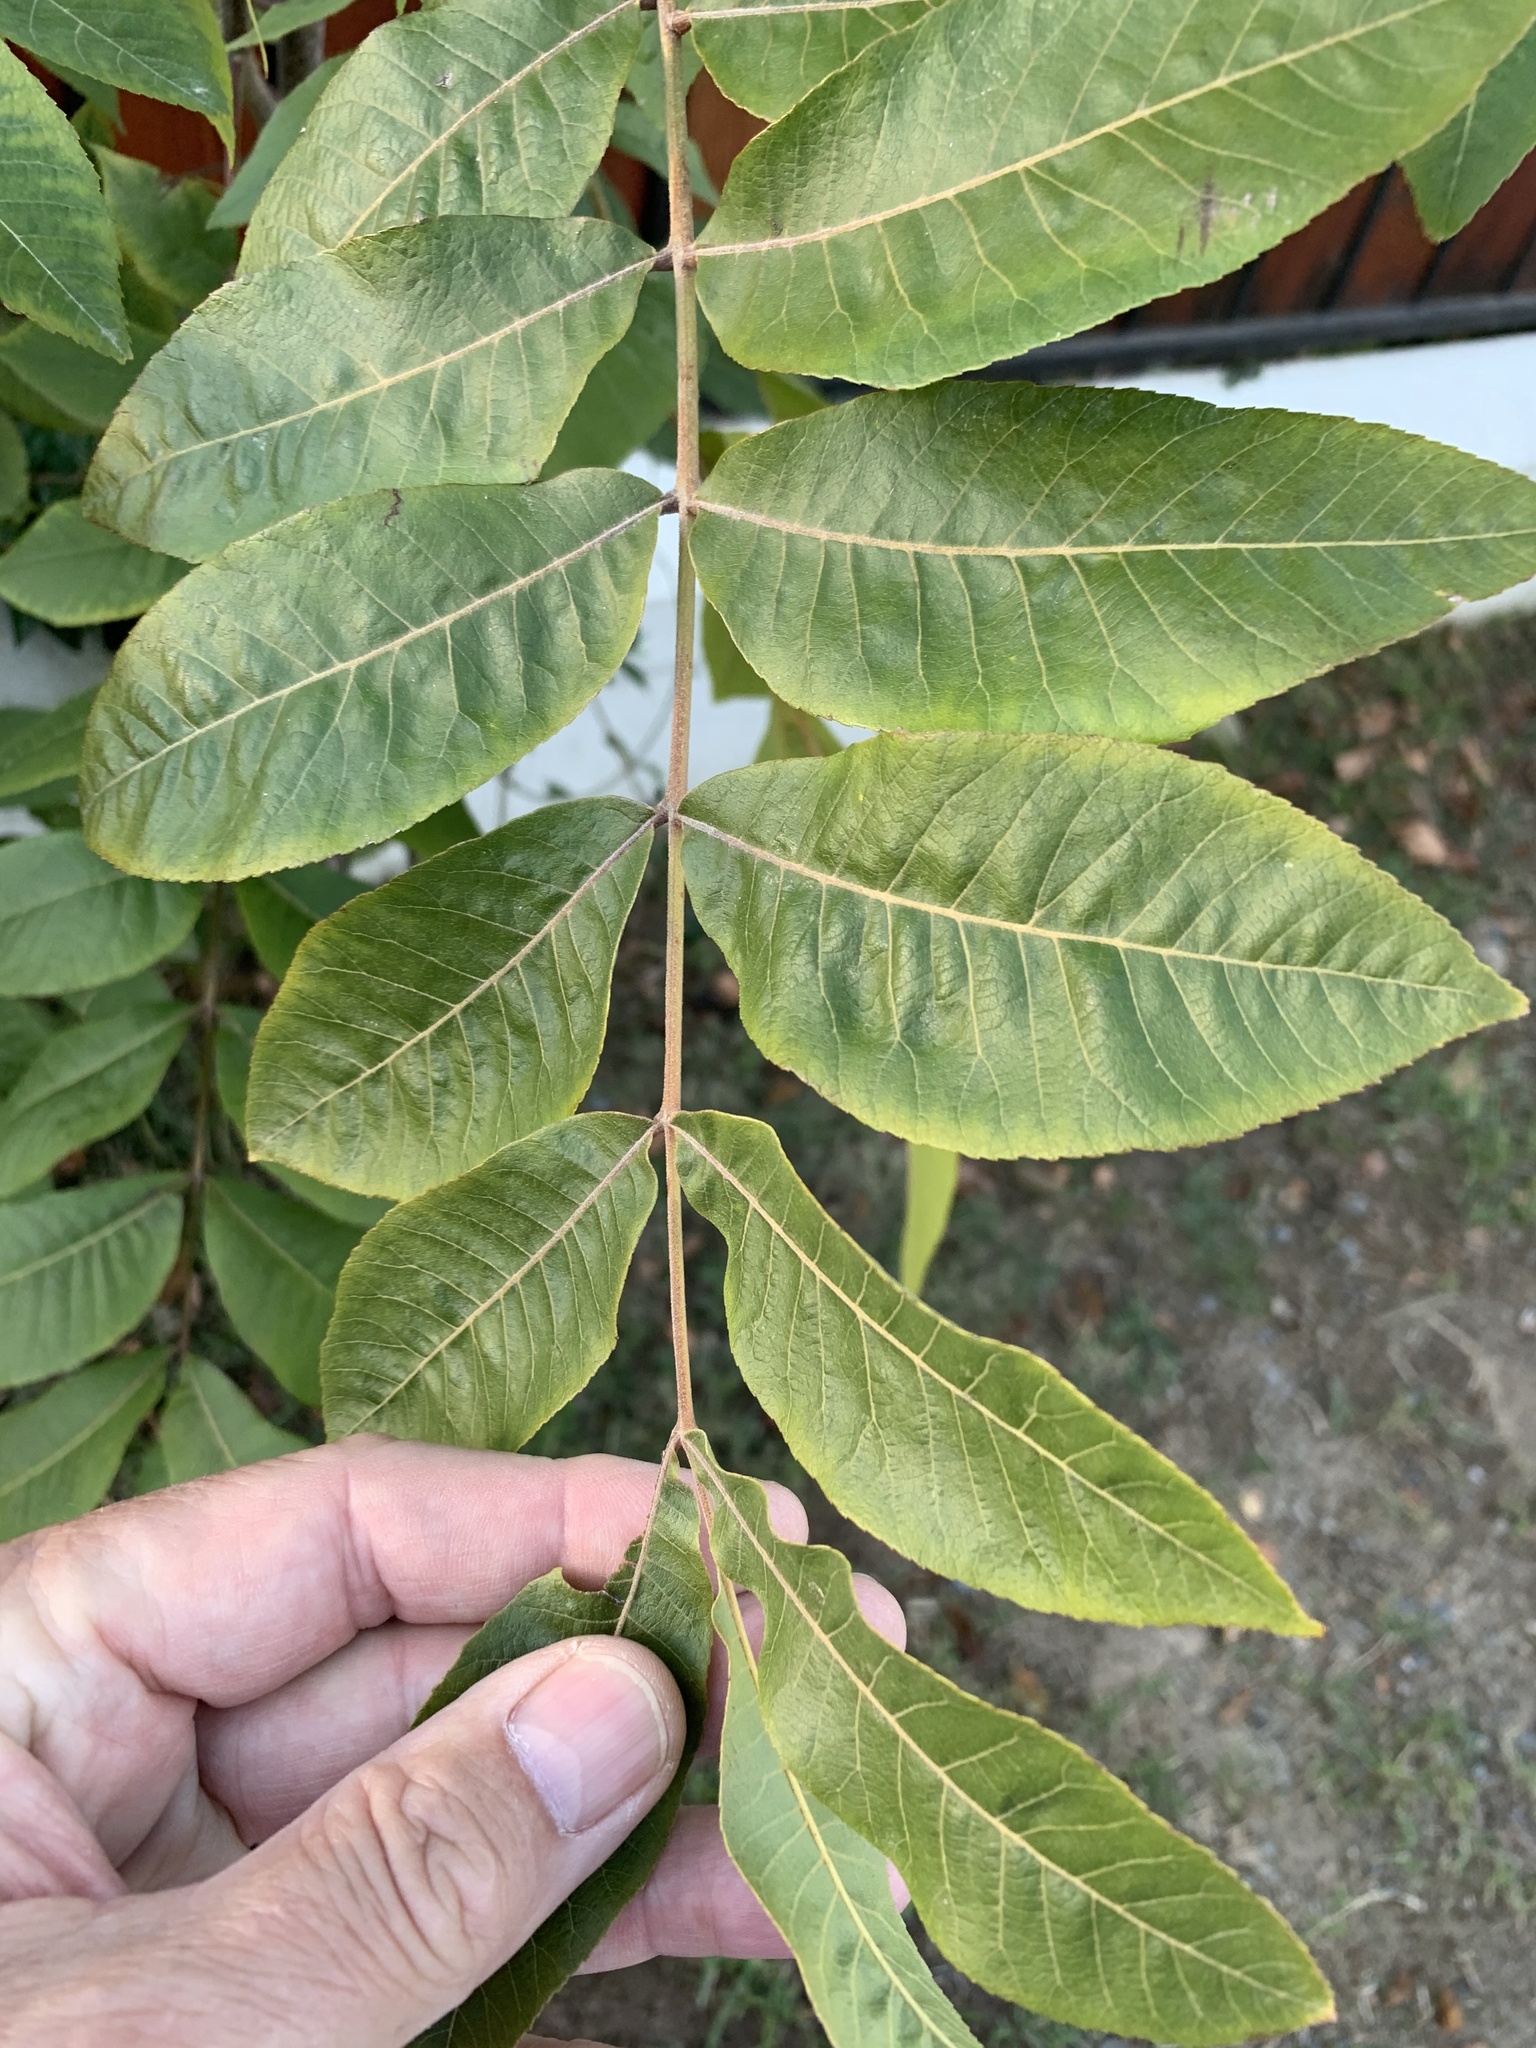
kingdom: Plantae
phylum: Tracheophyta
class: Magnoliopsida
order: Fagales
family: Juglandaceae
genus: Carya
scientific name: Carya illinoinensis
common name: Pecan
